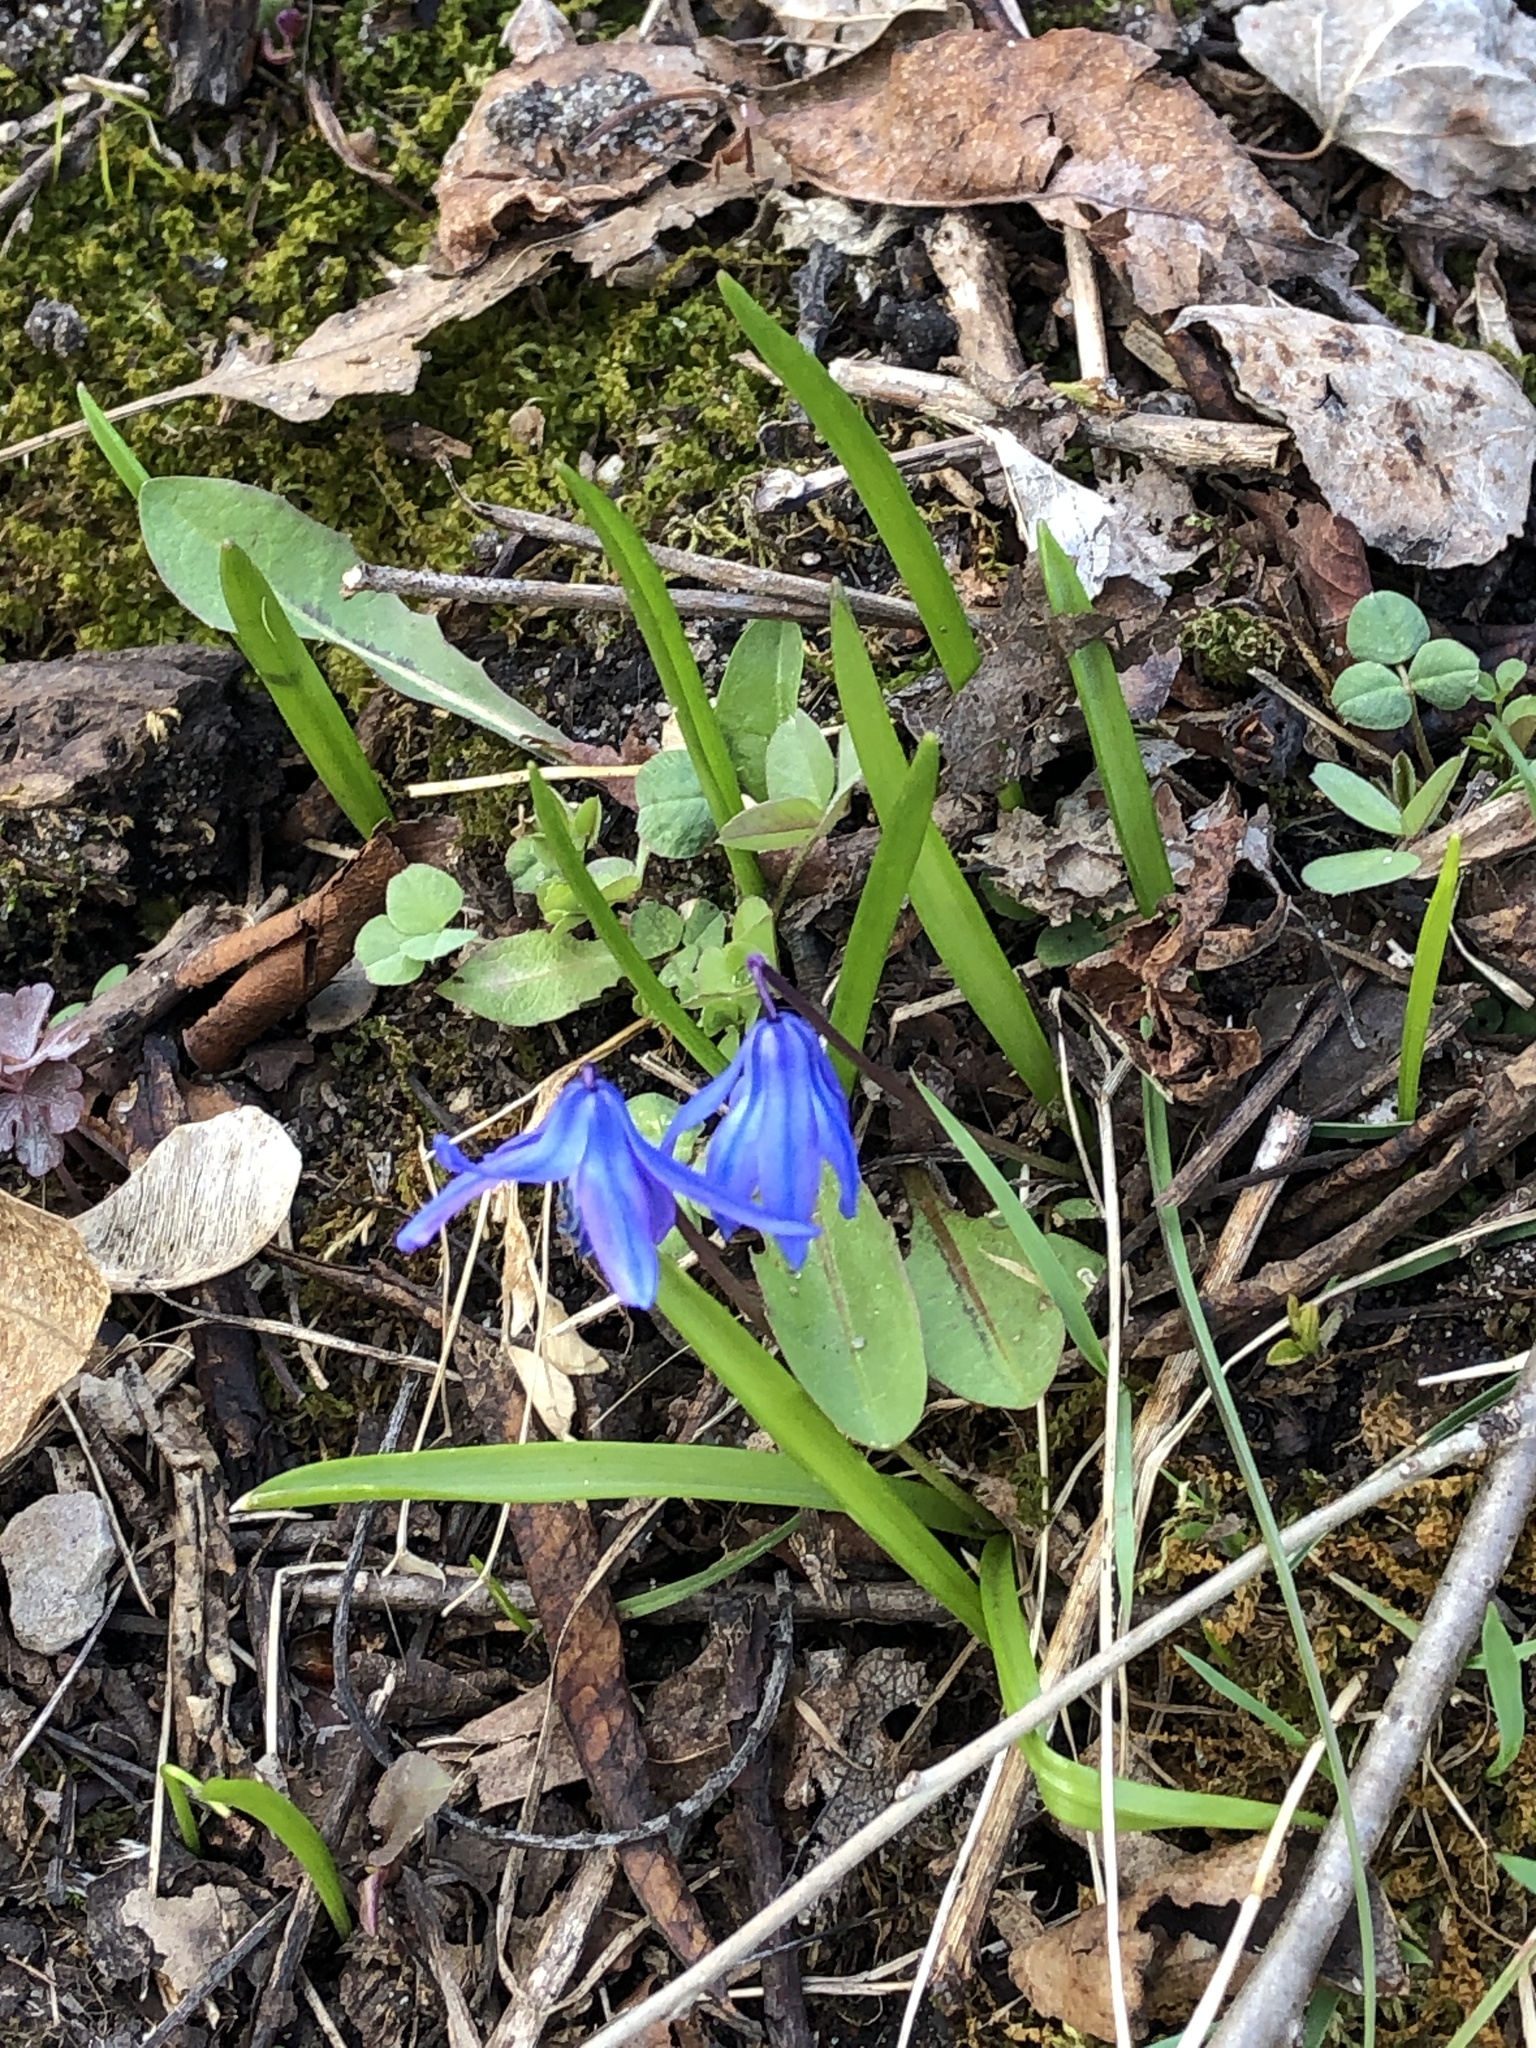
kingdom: Plantae
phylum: Tracheophyta
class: Liliopsida
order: Asparagales
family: Asparagaceae
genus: Scilla
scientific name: Scilla siberica
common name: Siberian squill
